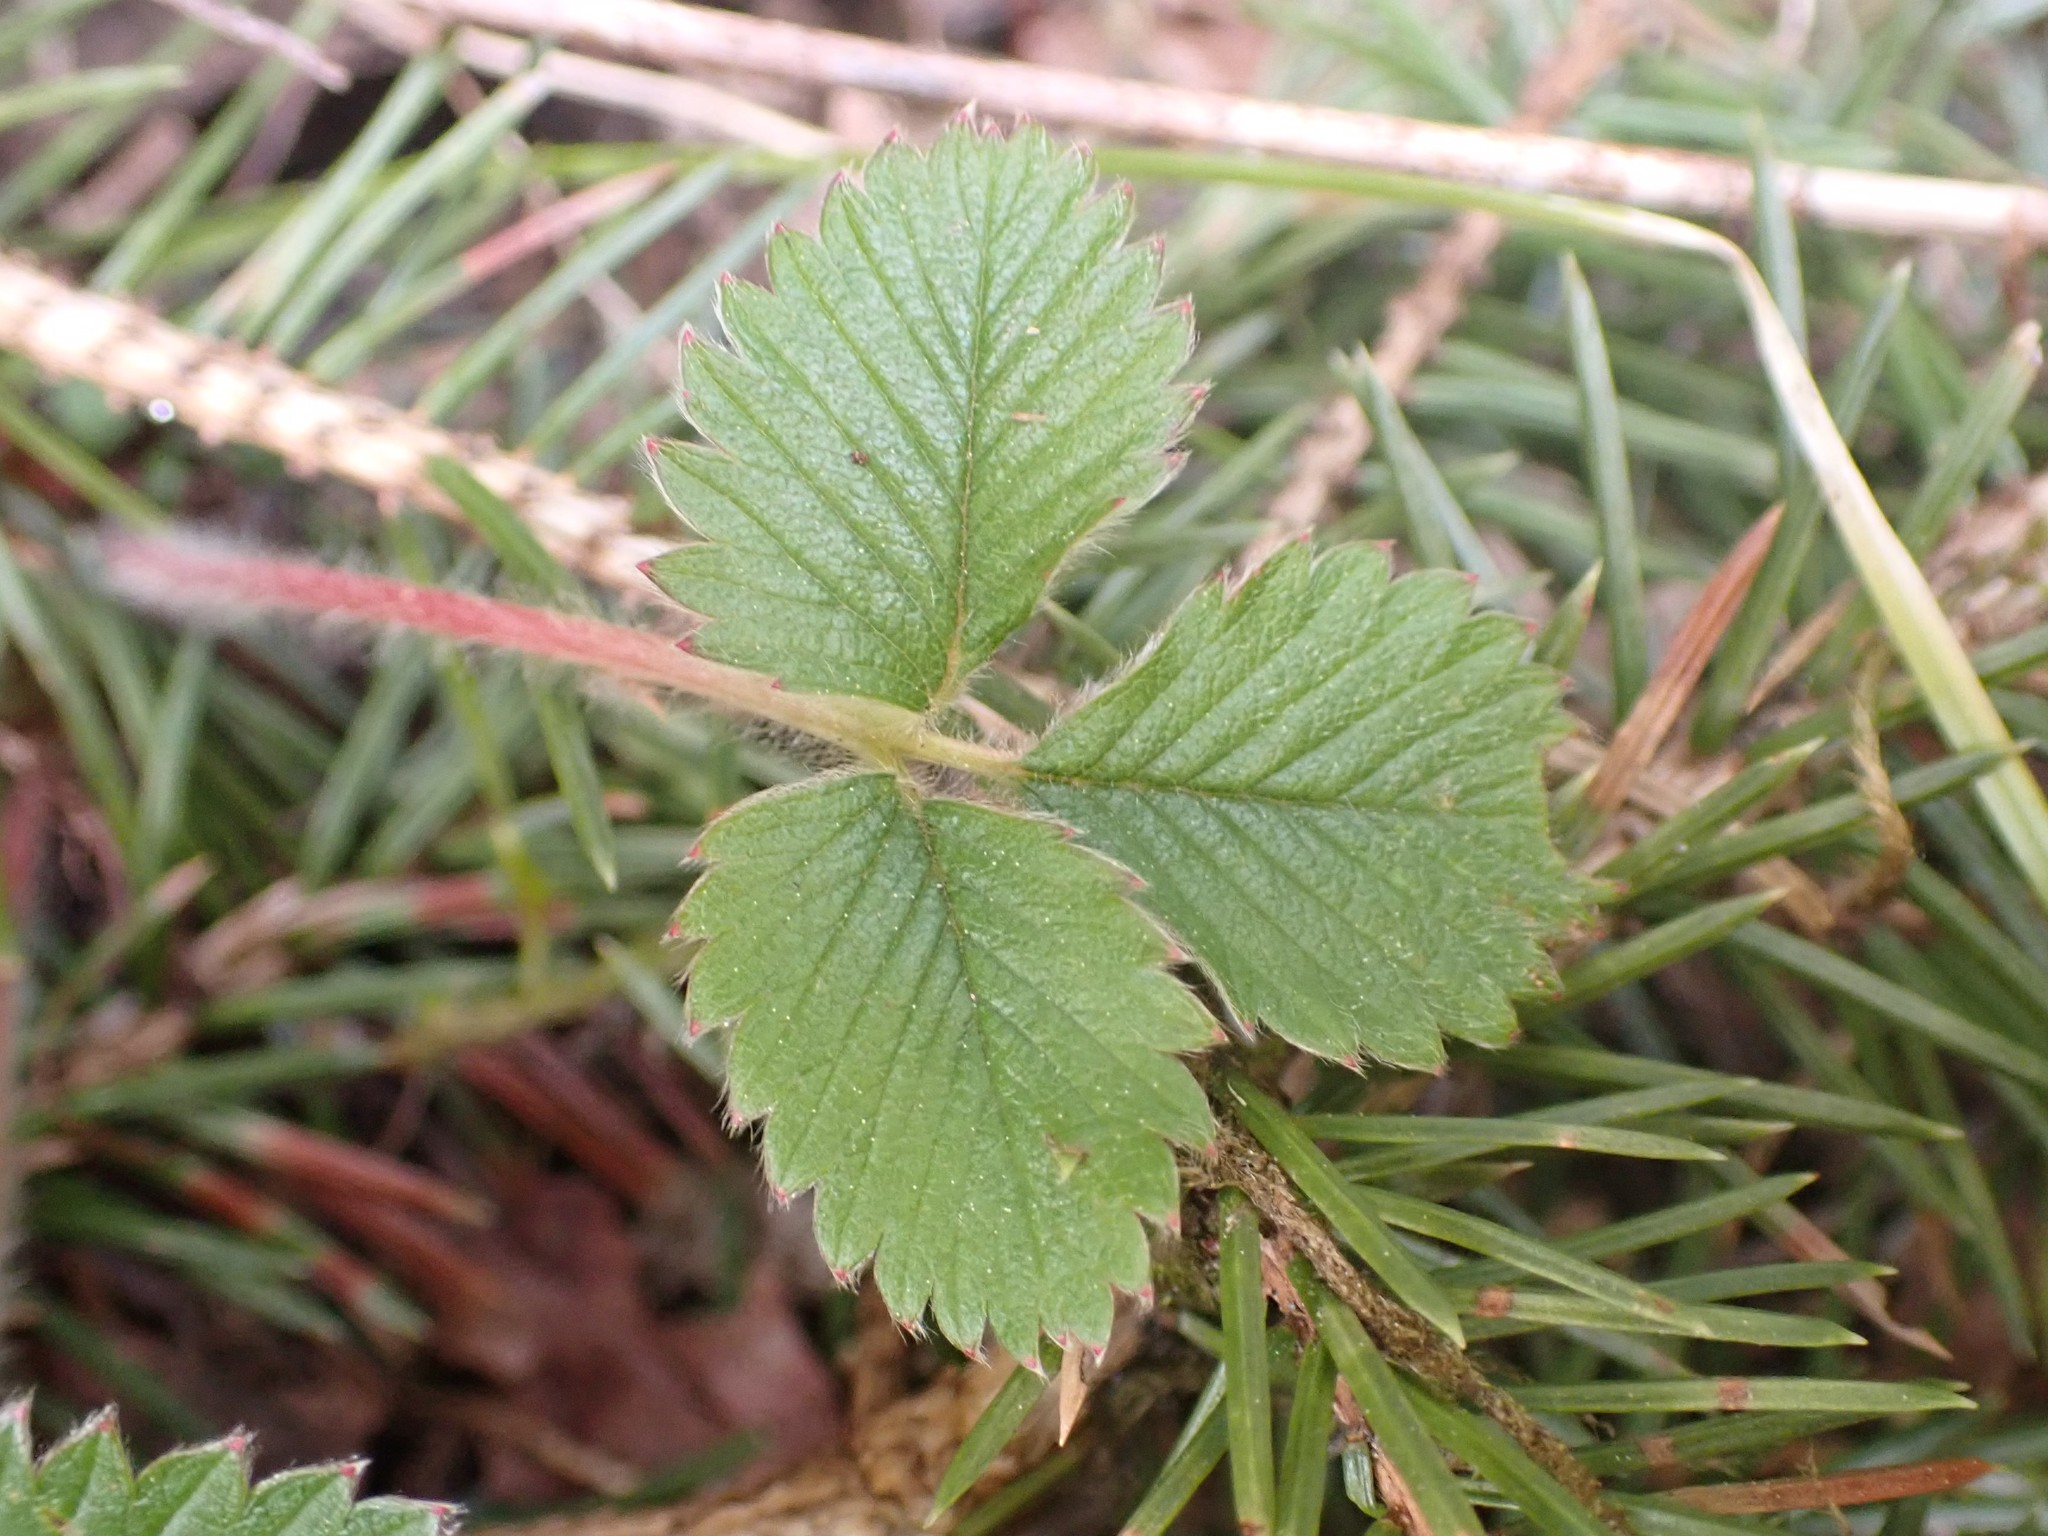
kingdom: Plantae
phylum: Tracheophyta
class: Magnoliopsida
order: Rosales
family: Rosaceae
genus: Fragaria
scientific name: Fragaria vesca
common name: Wild strawberry
